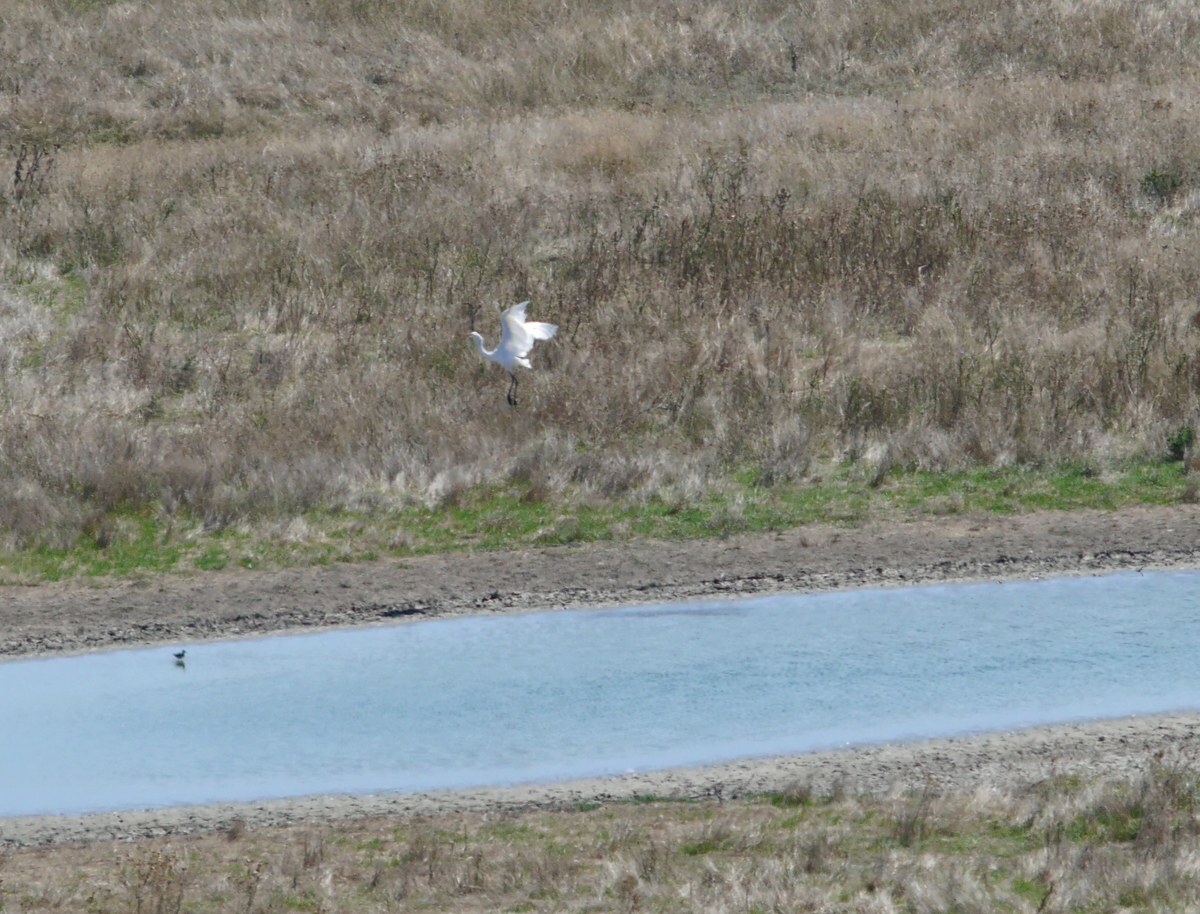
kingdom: Animalia
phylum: Chordata
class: Aves
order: Pelecaniformes
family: Ardeidae
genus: Ardea
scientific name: Ardea alba
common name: Great egret
